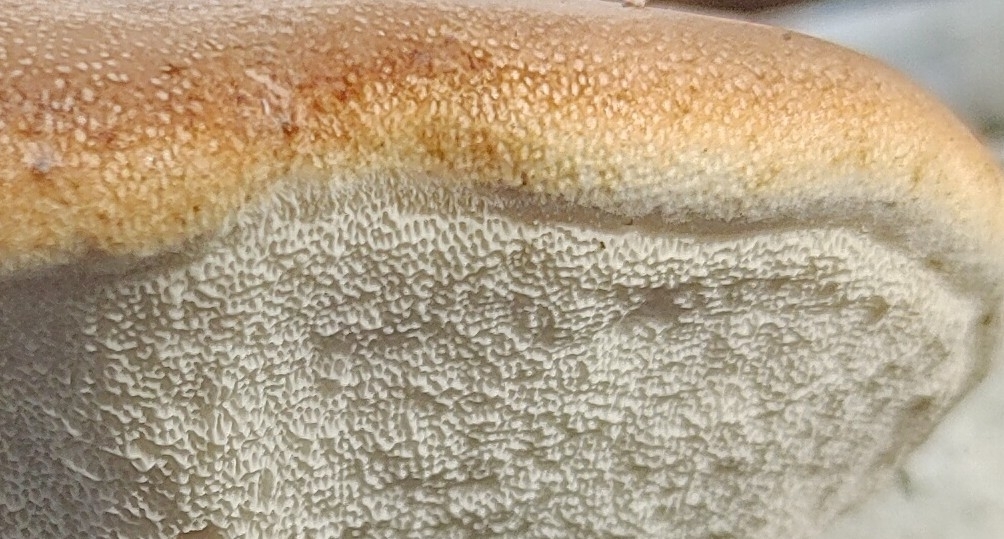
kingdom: Fungi
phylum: Basidiomycota
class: Agaricomycetes
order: Polyporales
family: Fomitopsidaceae
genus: Fomitopsis
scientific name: Fomitopsis betulina
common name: Birch polypore
